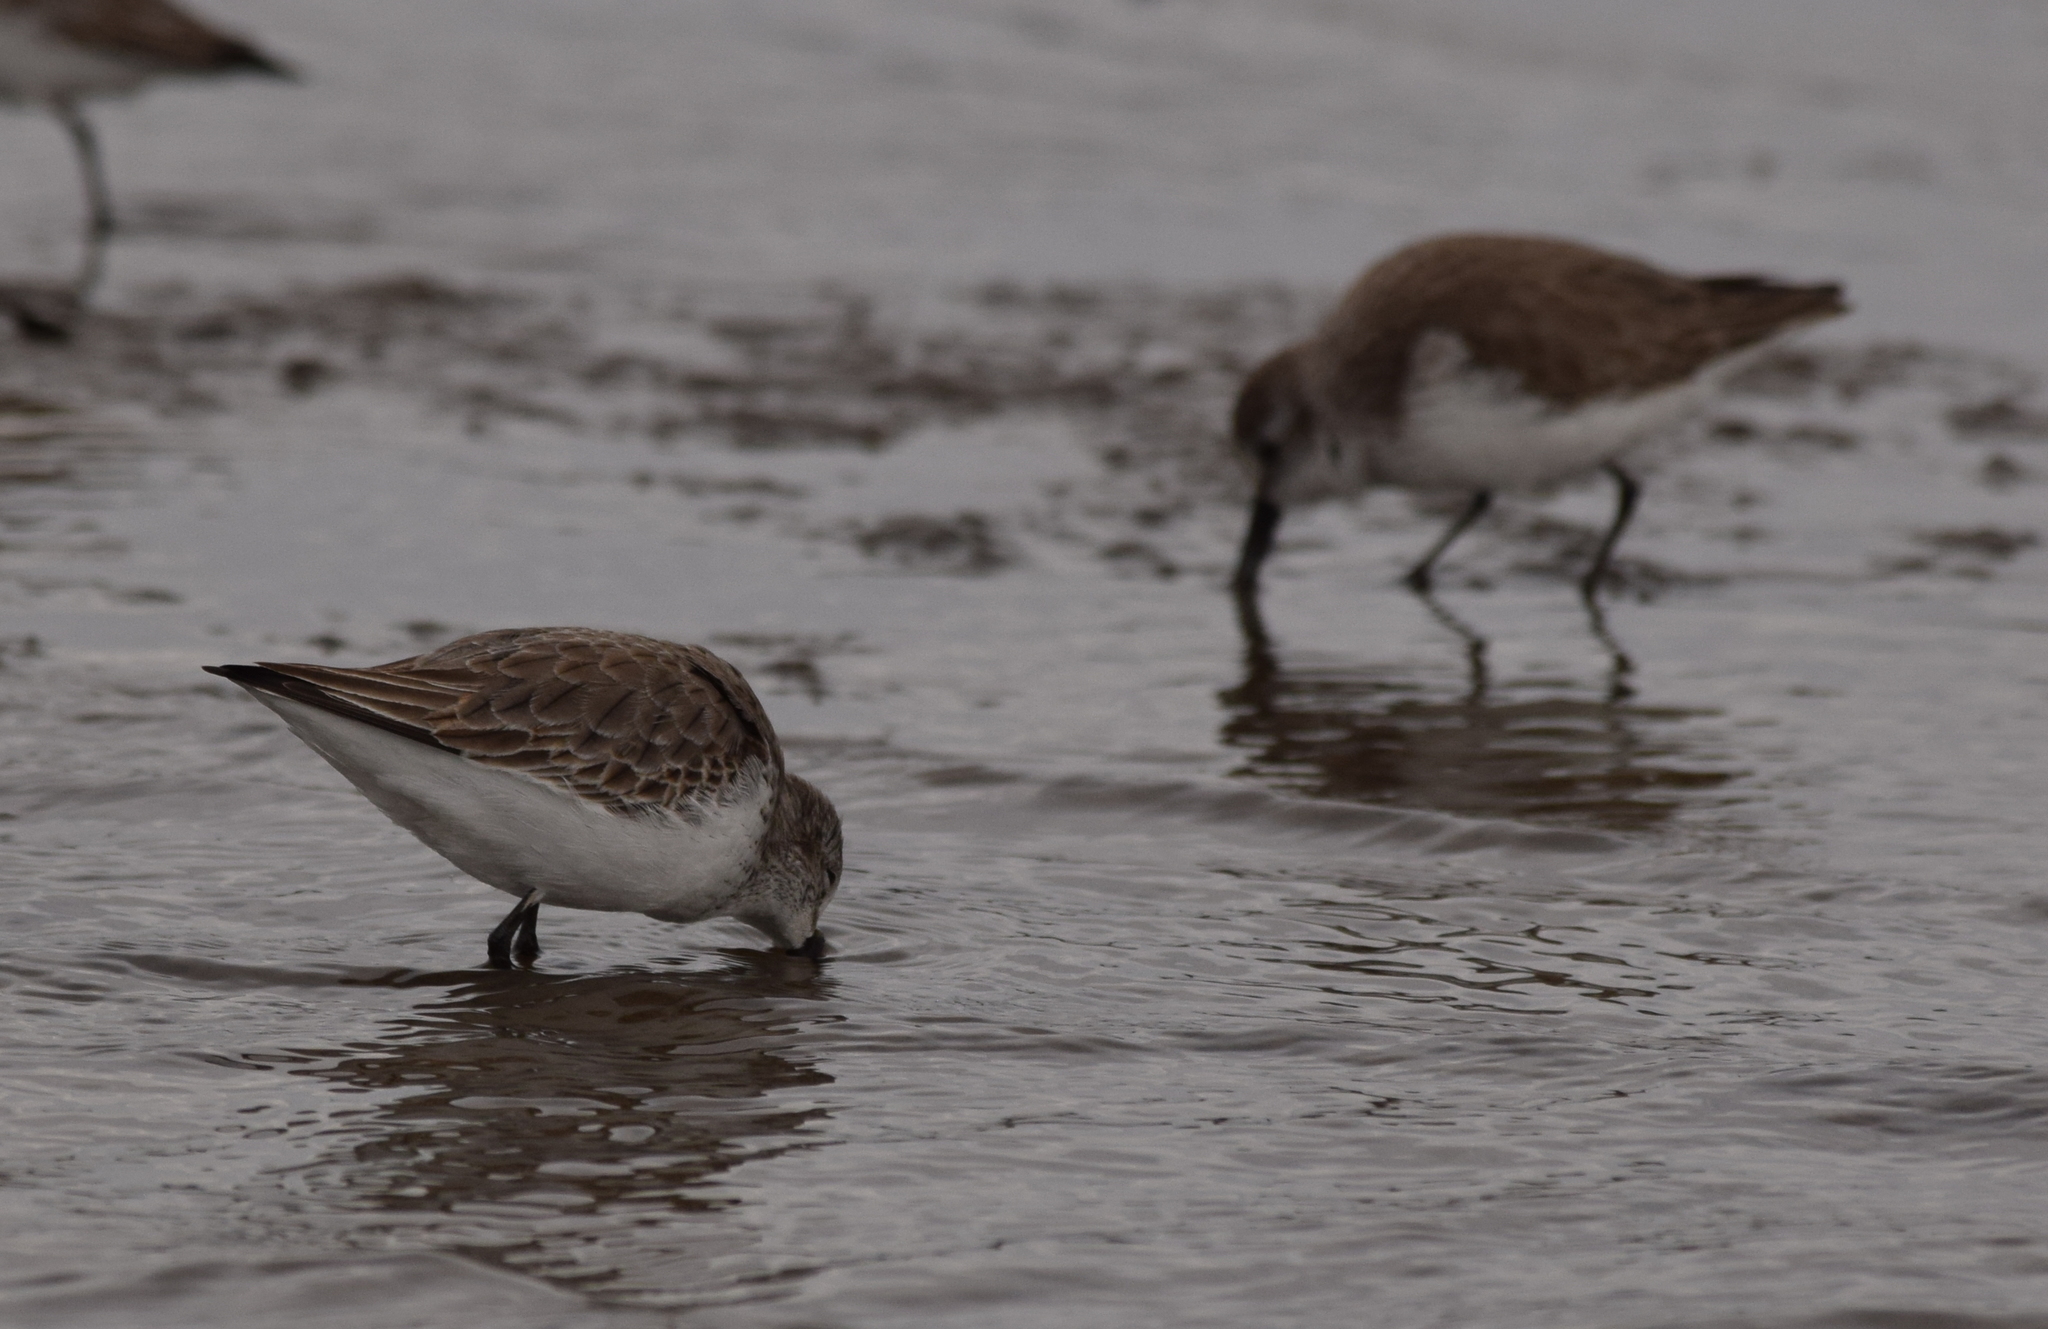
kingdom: Animalia
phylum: Chordata
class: Aves
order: Charadriiformes
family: Scolopacidae
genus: Calidris
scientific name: Calidris mauri
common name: Western sandpiper
